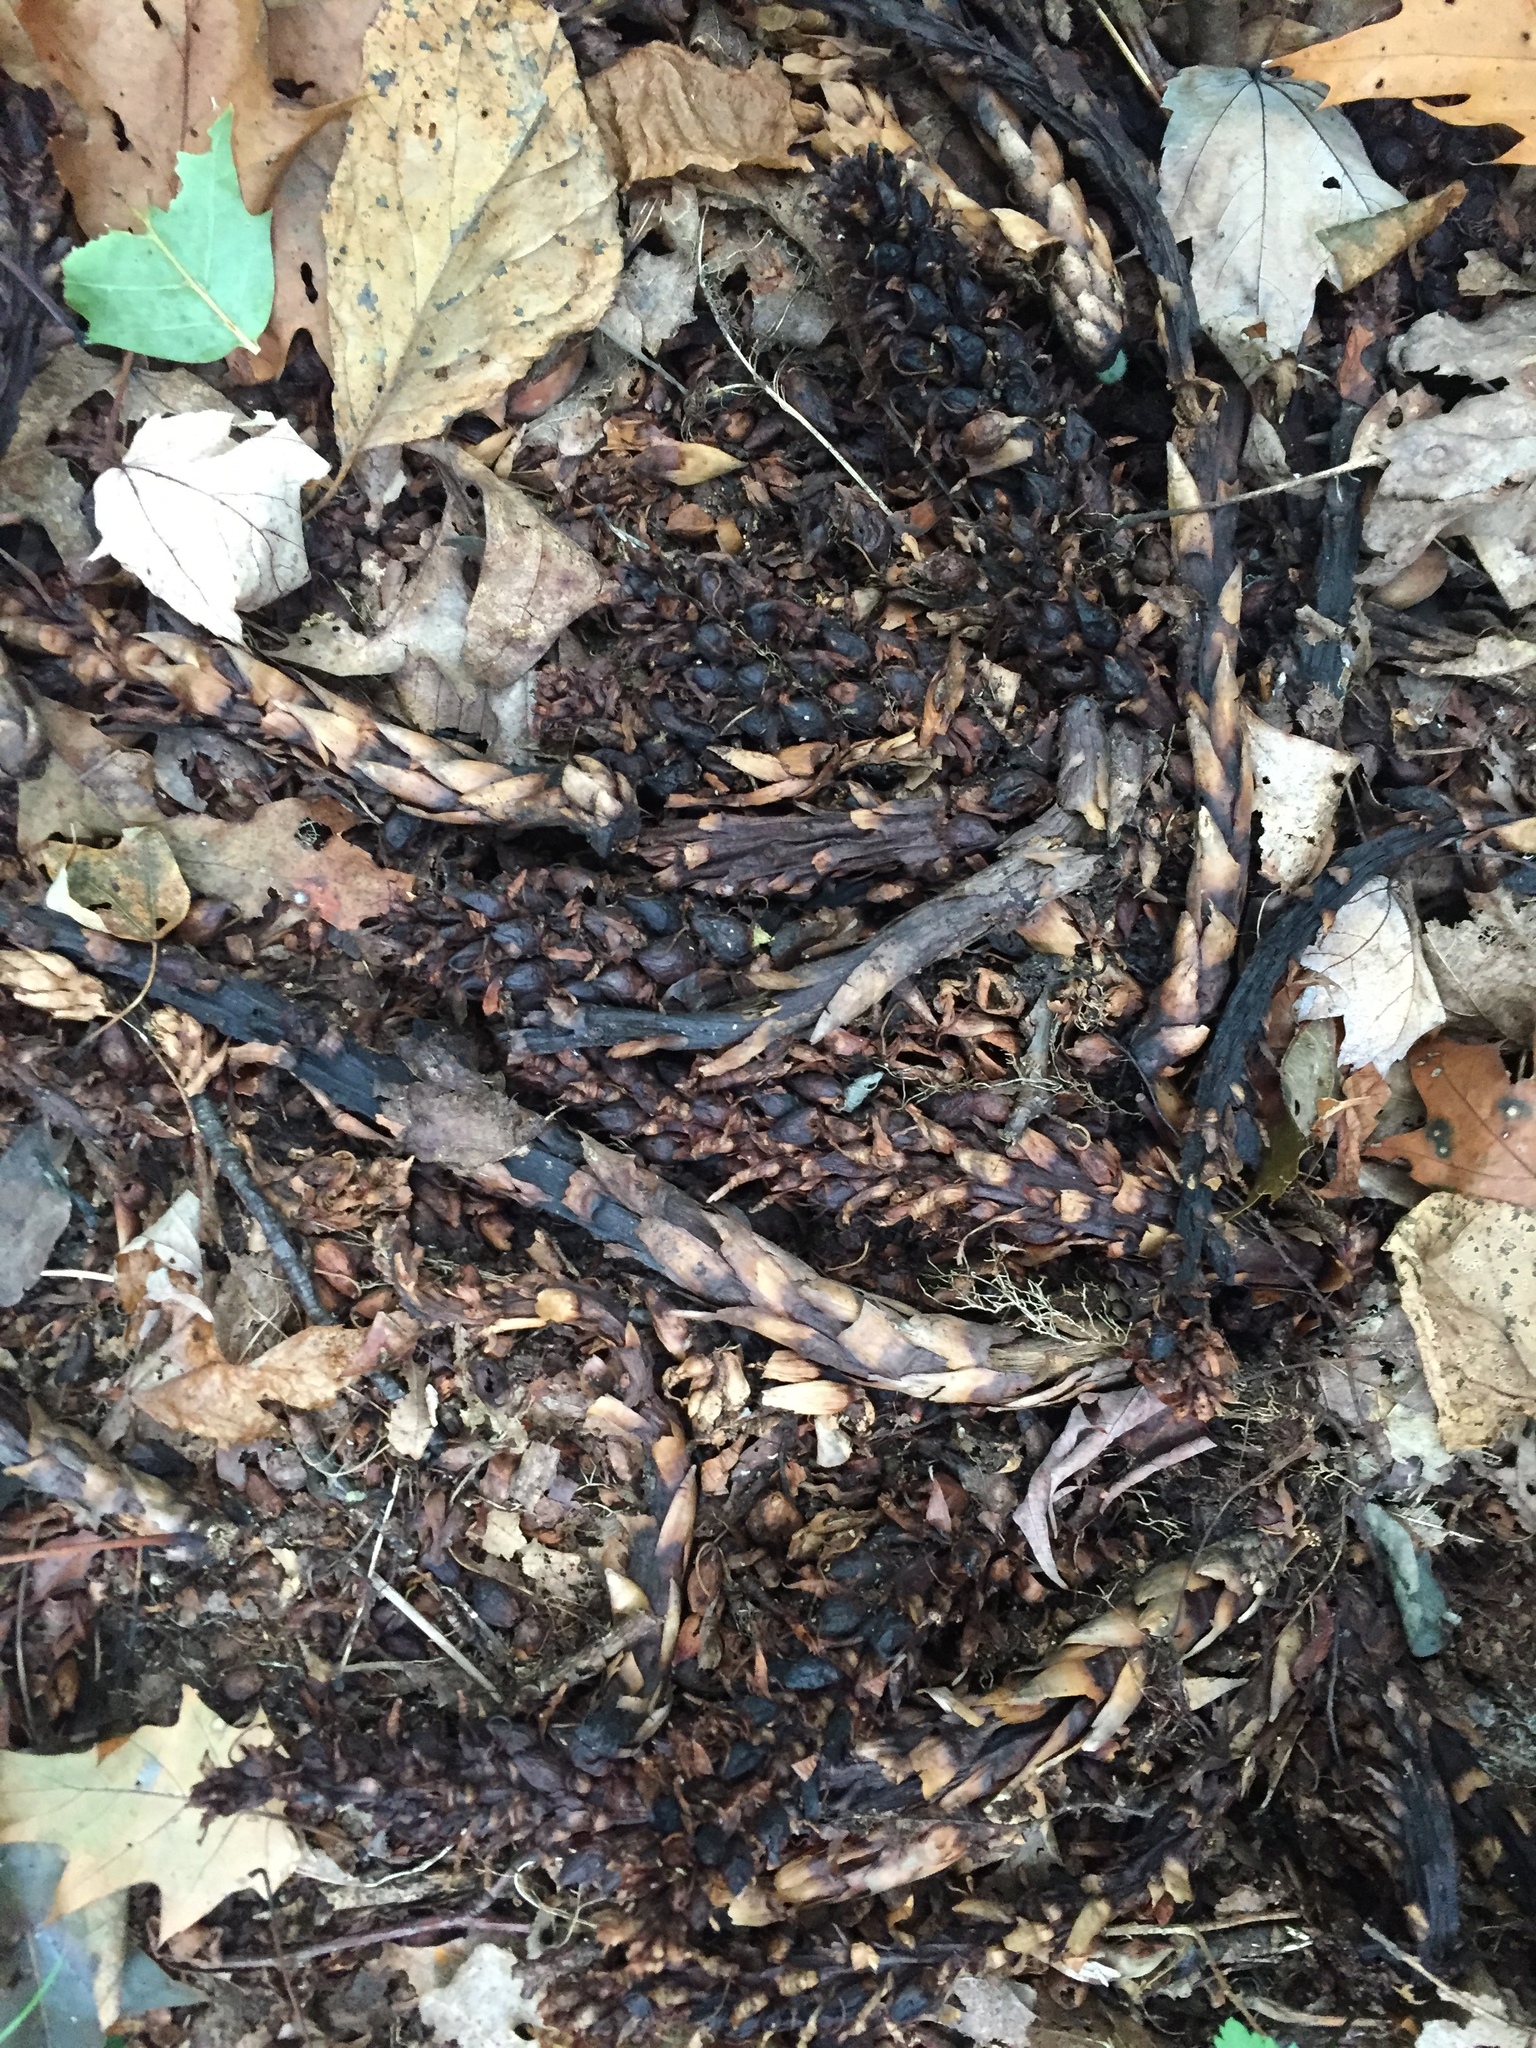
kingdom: Plantae
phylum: Tracheophyta
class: Magnoliopsida
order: Lamiales
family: Orobanchaceae
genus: Conopholis
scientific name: Conopholis americana
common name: American cancer-root
